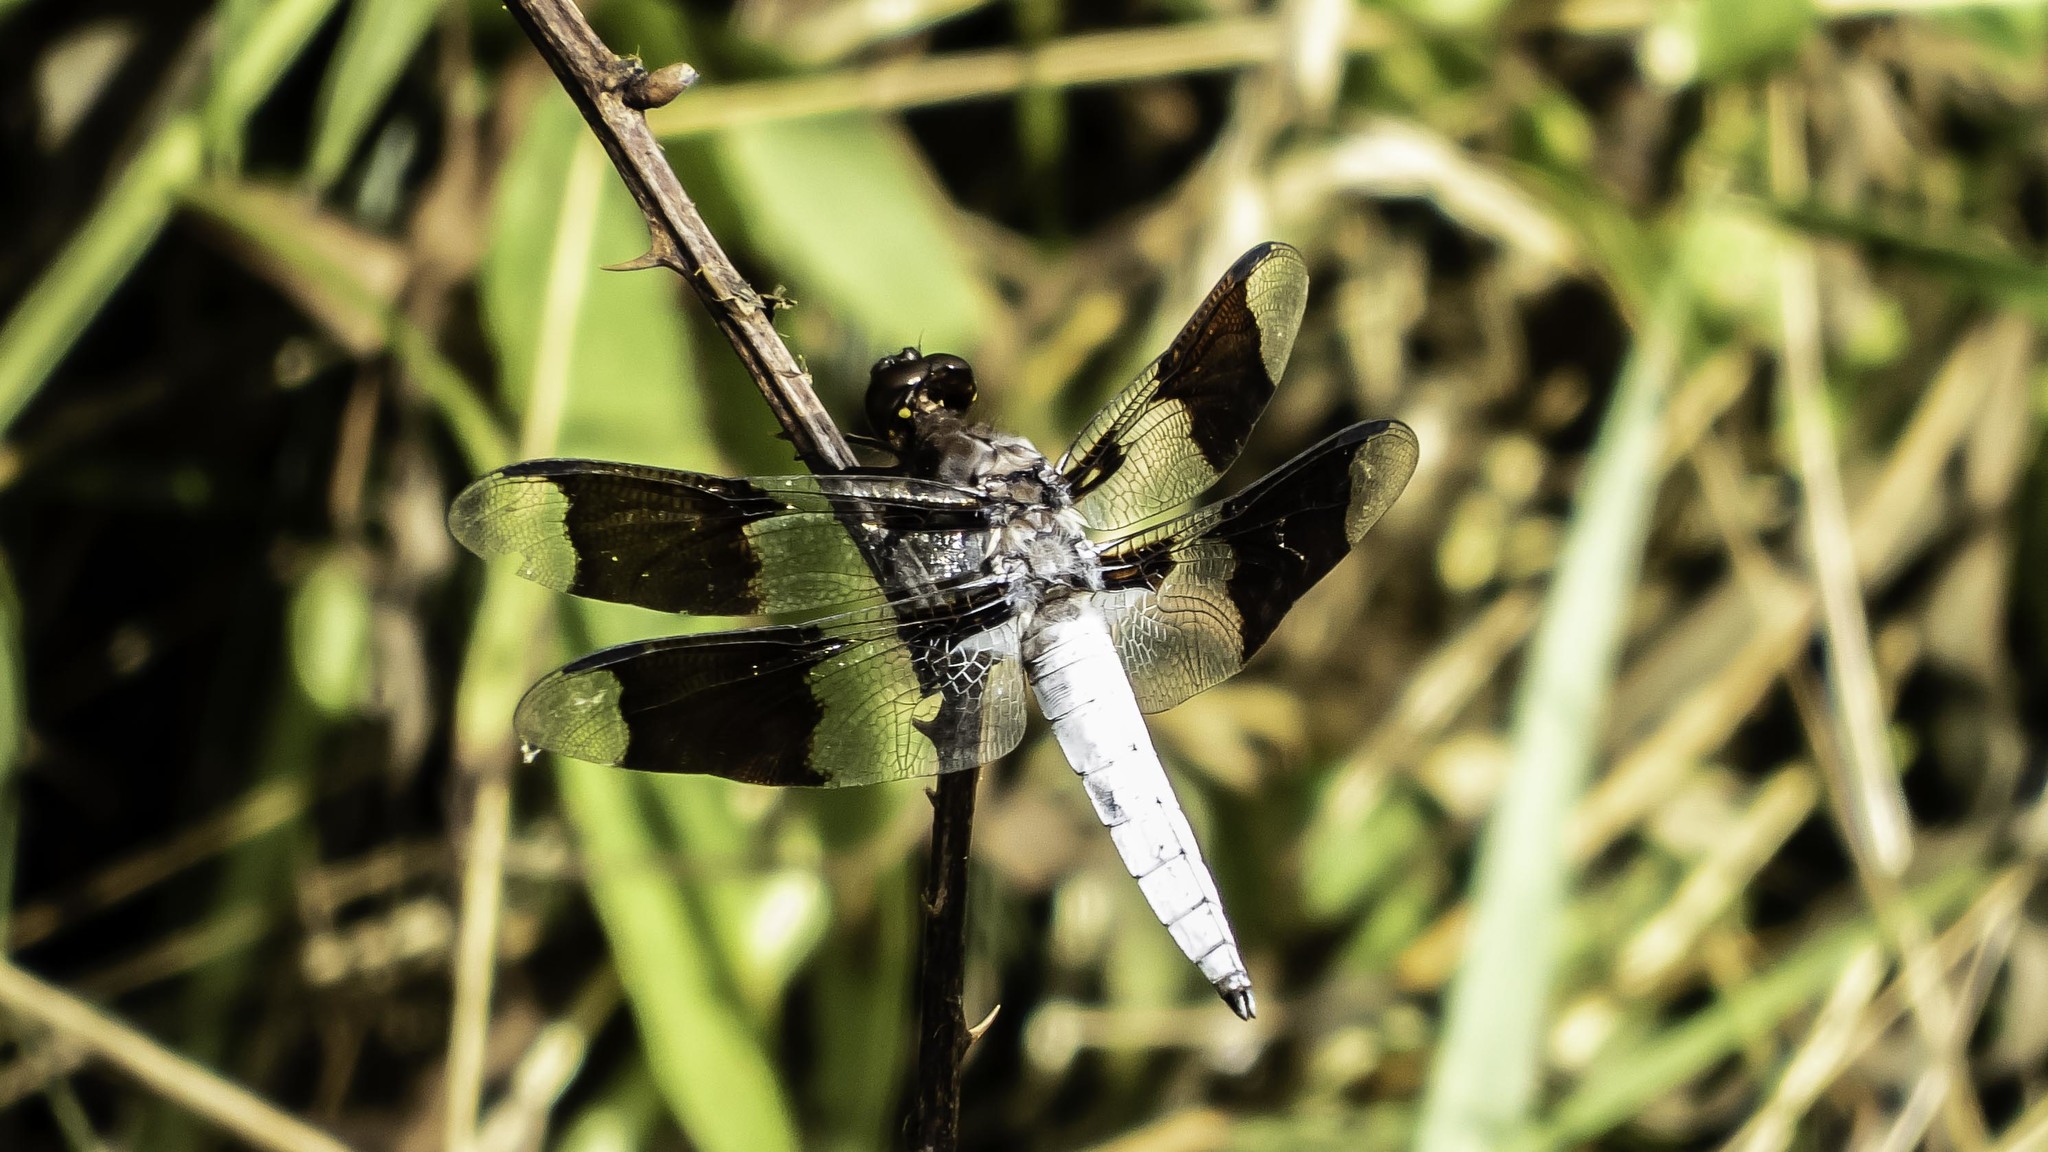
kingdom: Animalia
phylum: Arthropoda
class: Insecta
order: Odonata
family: Libellulidae
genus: Plathemis
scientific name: Plathemis lydia
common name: Common whitetail
